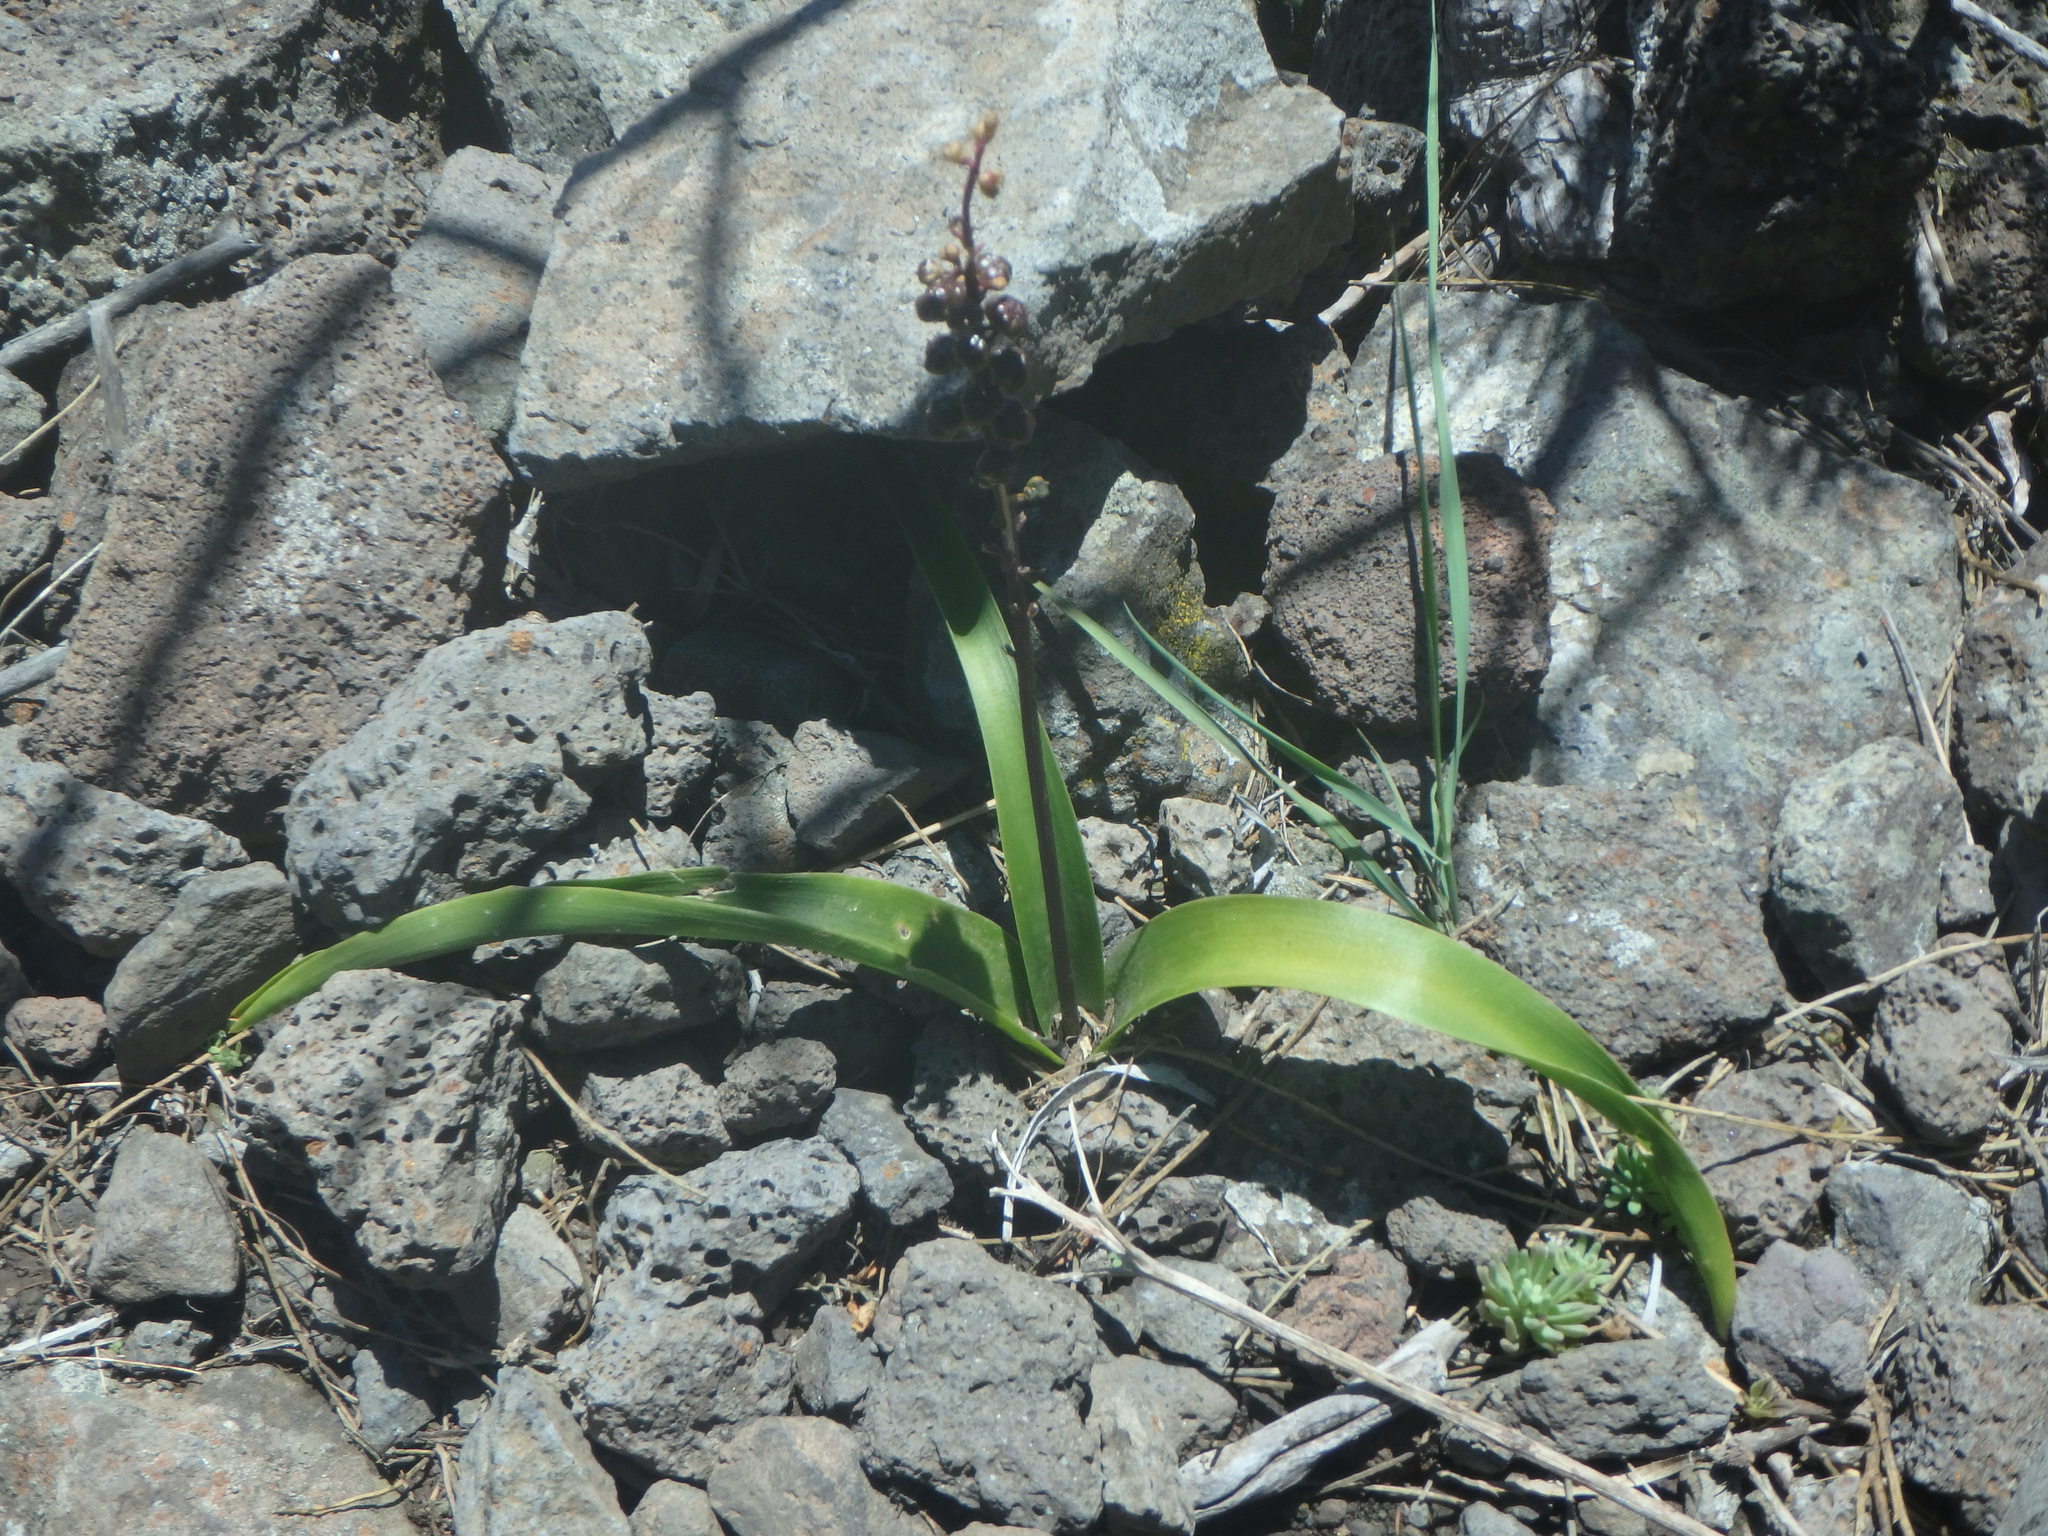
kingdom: Plantae
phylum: Tracheophyta
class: Liliopsida
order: Asparagales
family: Asparagaceae
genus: Scilla
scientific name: Scilla haemorrhoidalis
